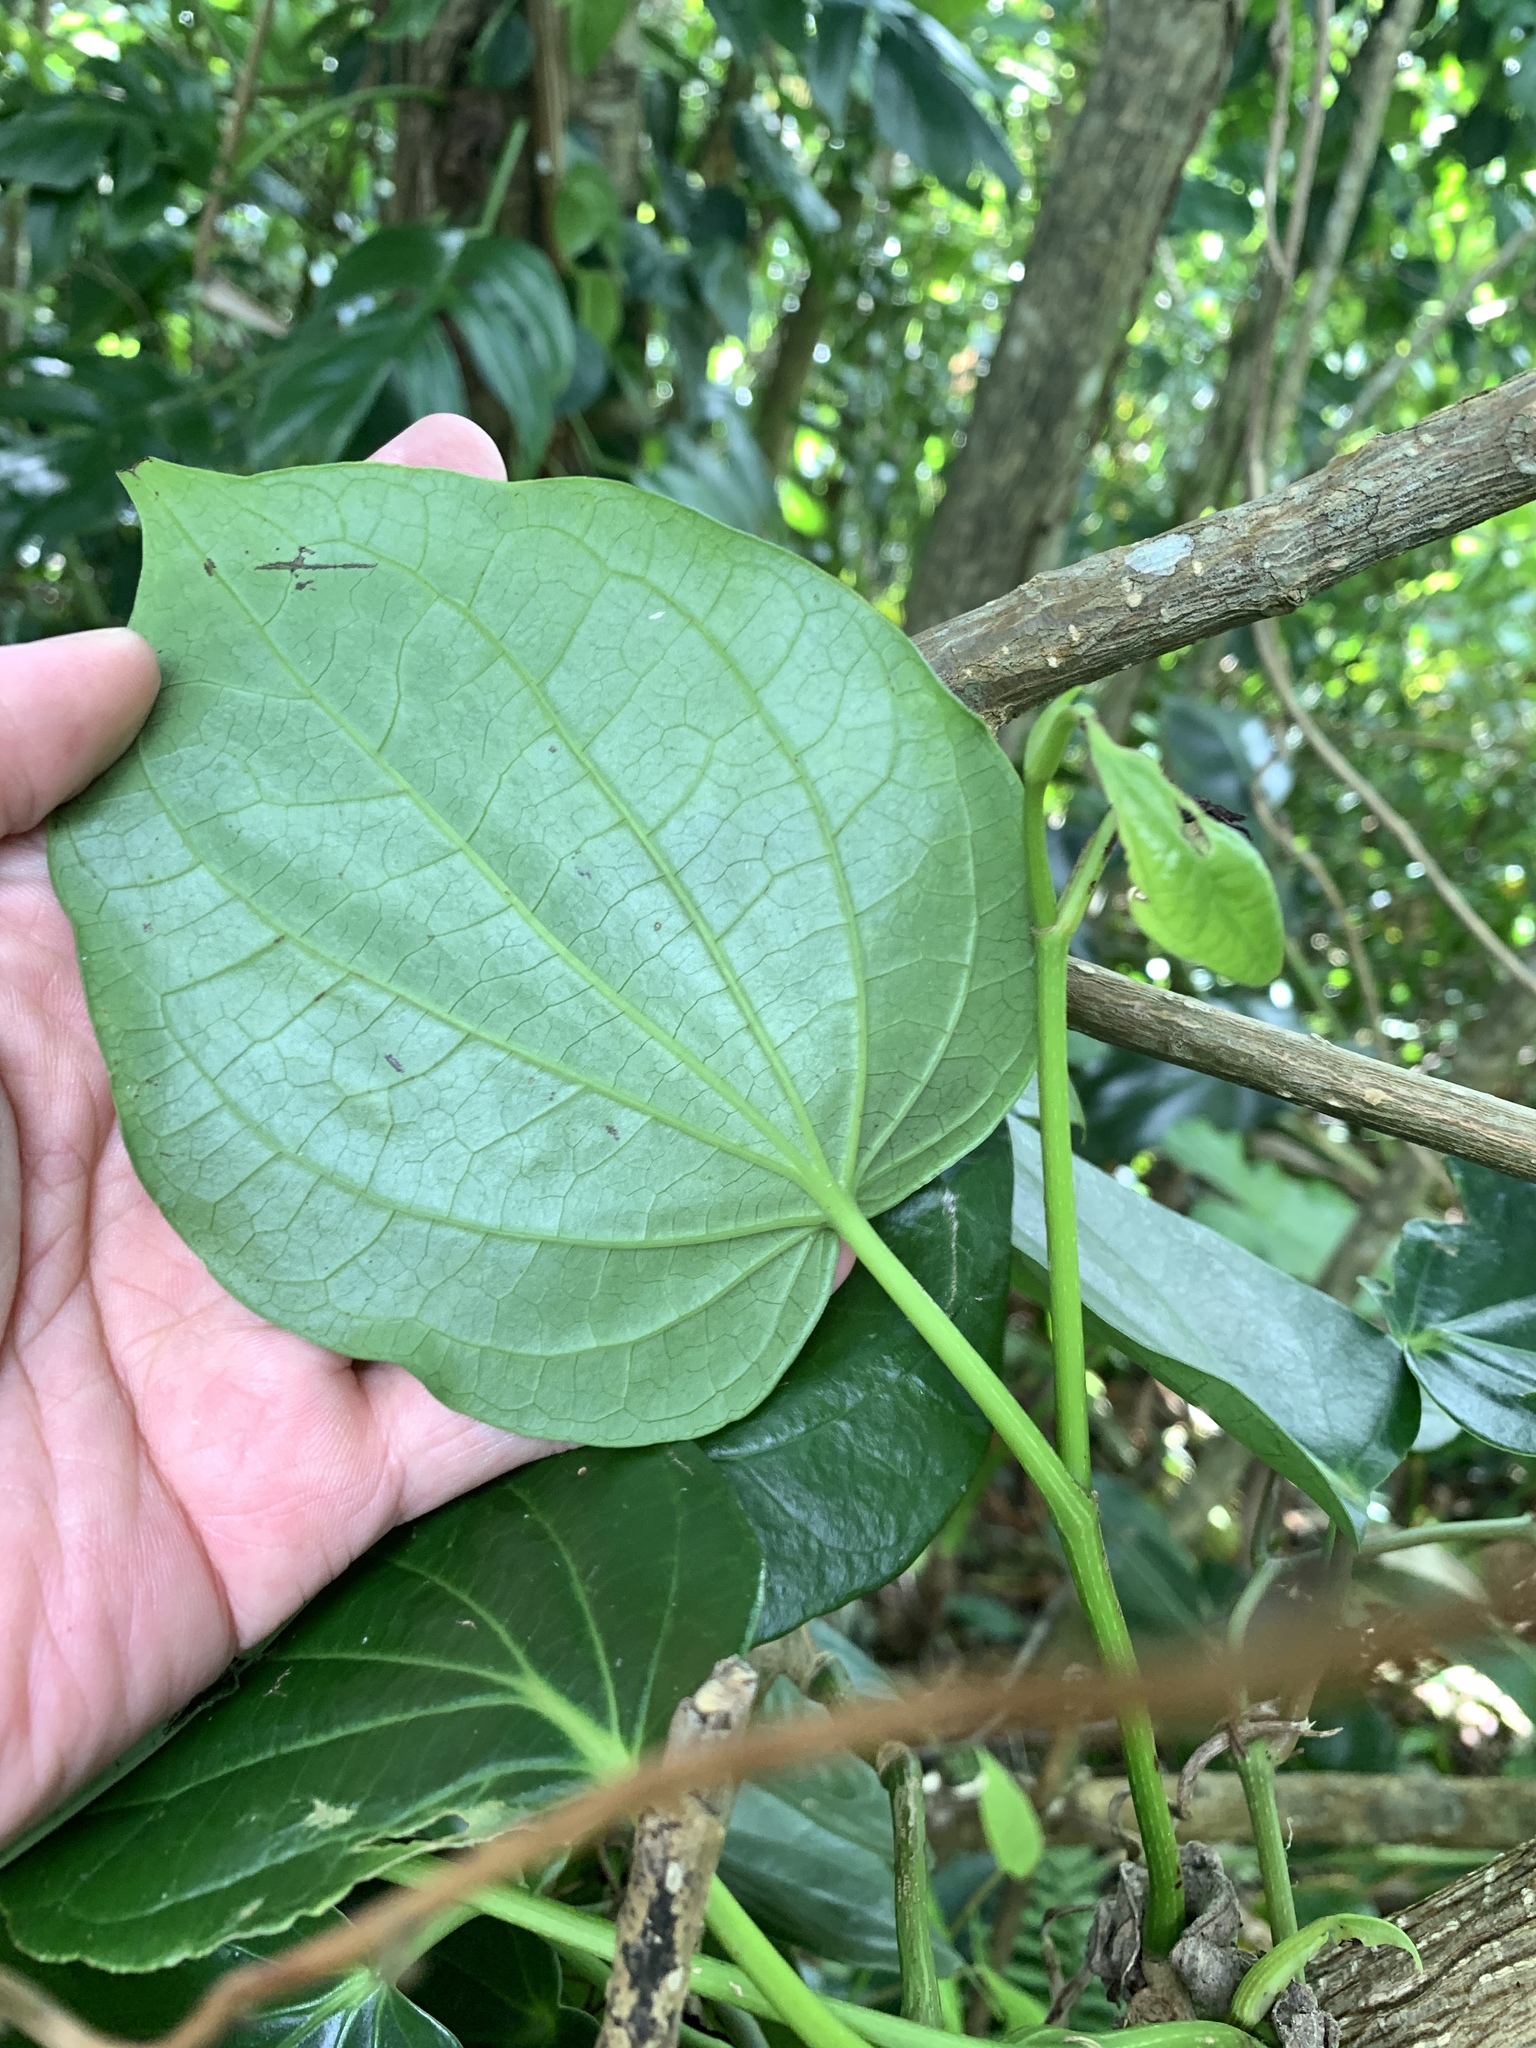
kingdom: Plantae
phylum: Tracheophyta
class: Magnoliopsida
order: Piperales
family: Piperaceae
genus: Piper
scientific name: Piper betle
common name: Betel pepper
